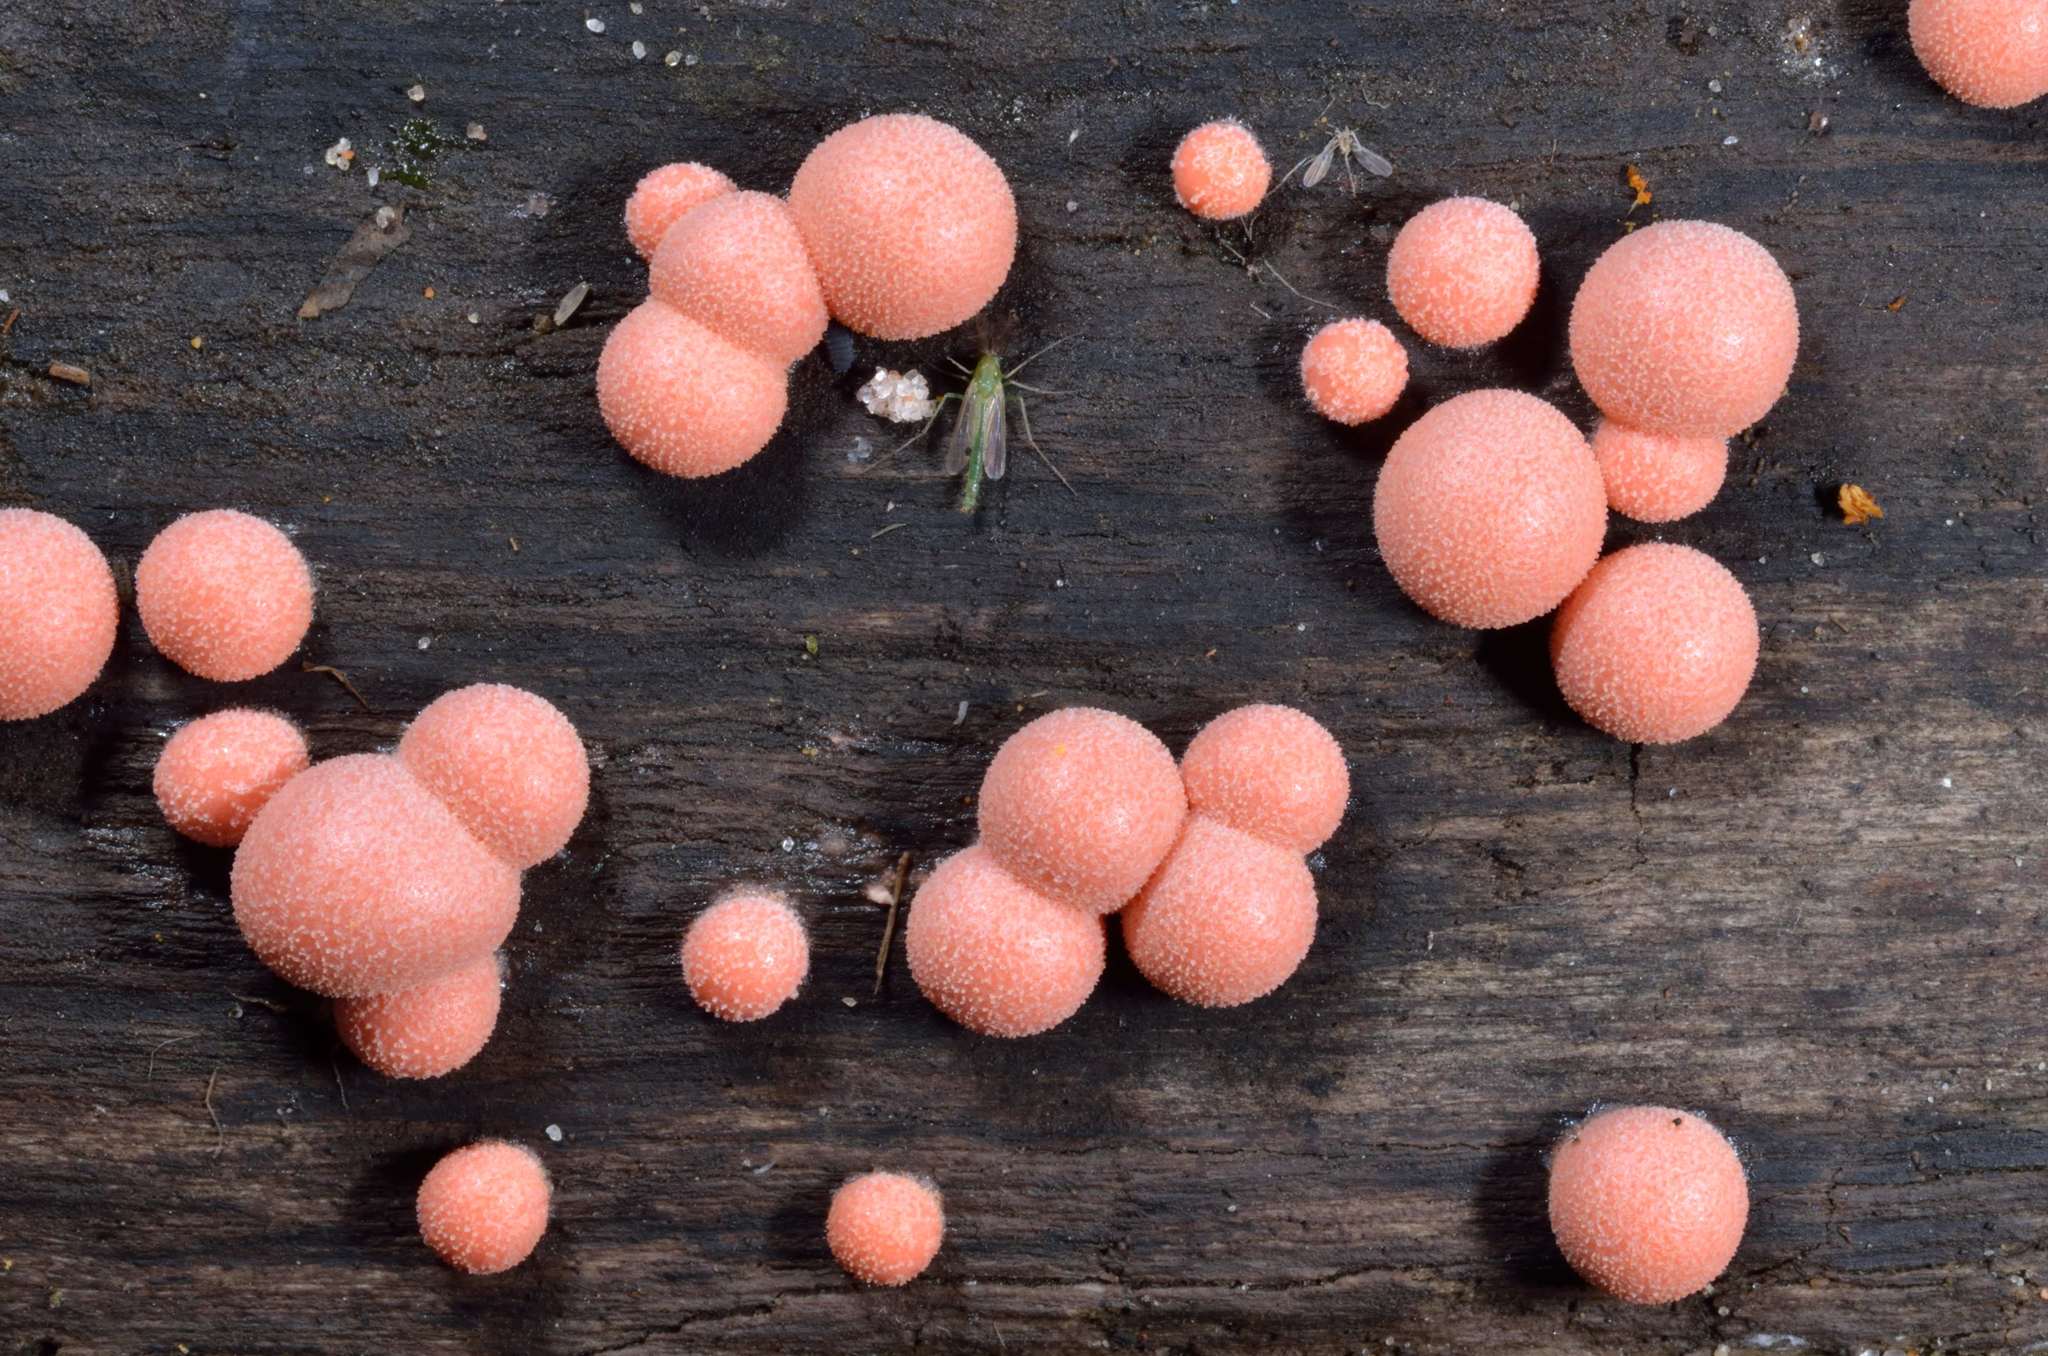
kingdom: Protozoa
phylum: Mycetozoa
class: Myxomycetes
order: Cribrariales
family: Tubiferaceae
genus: Lycogala
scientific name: Lycogala epidendrum
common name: Wolf's milk
